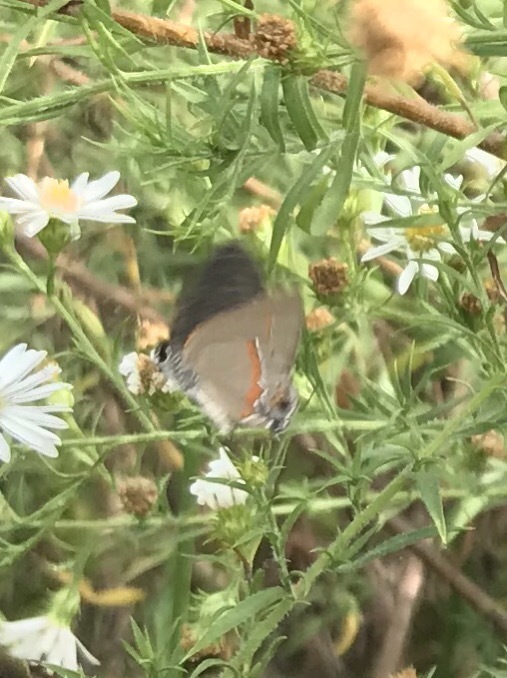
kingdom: Animalia
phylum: Arthropoda
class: Insecta
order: Lepidoptera
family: Lycaenidae
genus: Calycopis
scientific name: Calycopis cecrops
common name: Red-banded hairstreak
